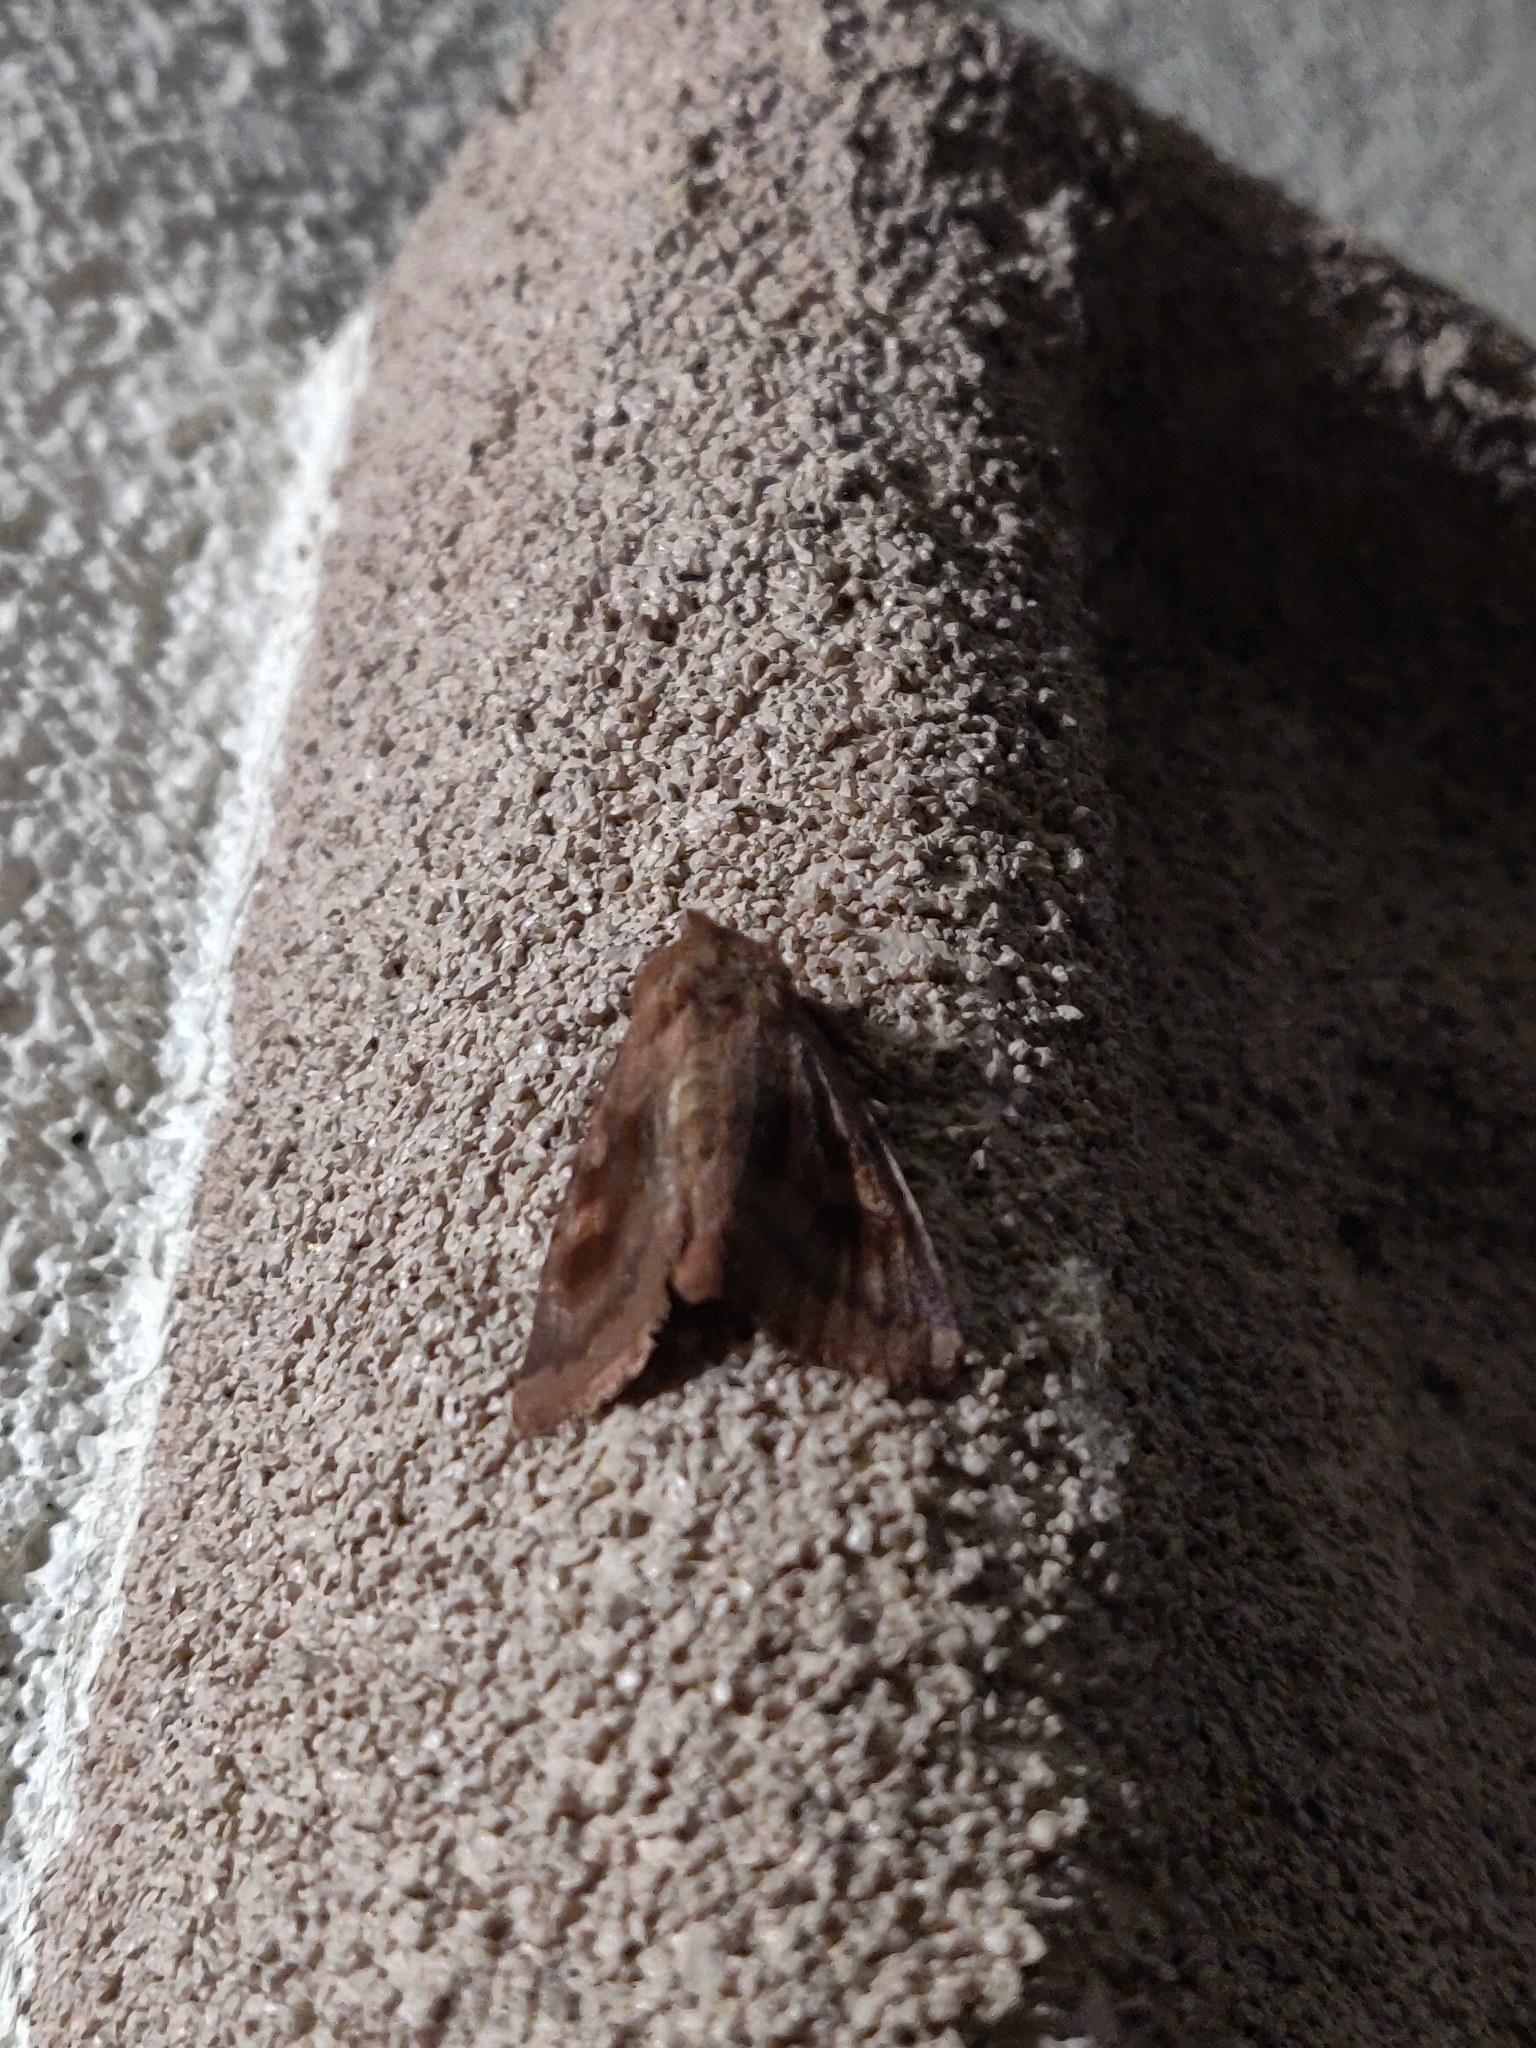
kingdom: Animalia
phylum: Arthropoda
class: Insecta
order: Lepidoptera
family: Noctuidae
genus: Nephelodes
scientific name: Nephelodes minians
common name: Bronzed cutworm
